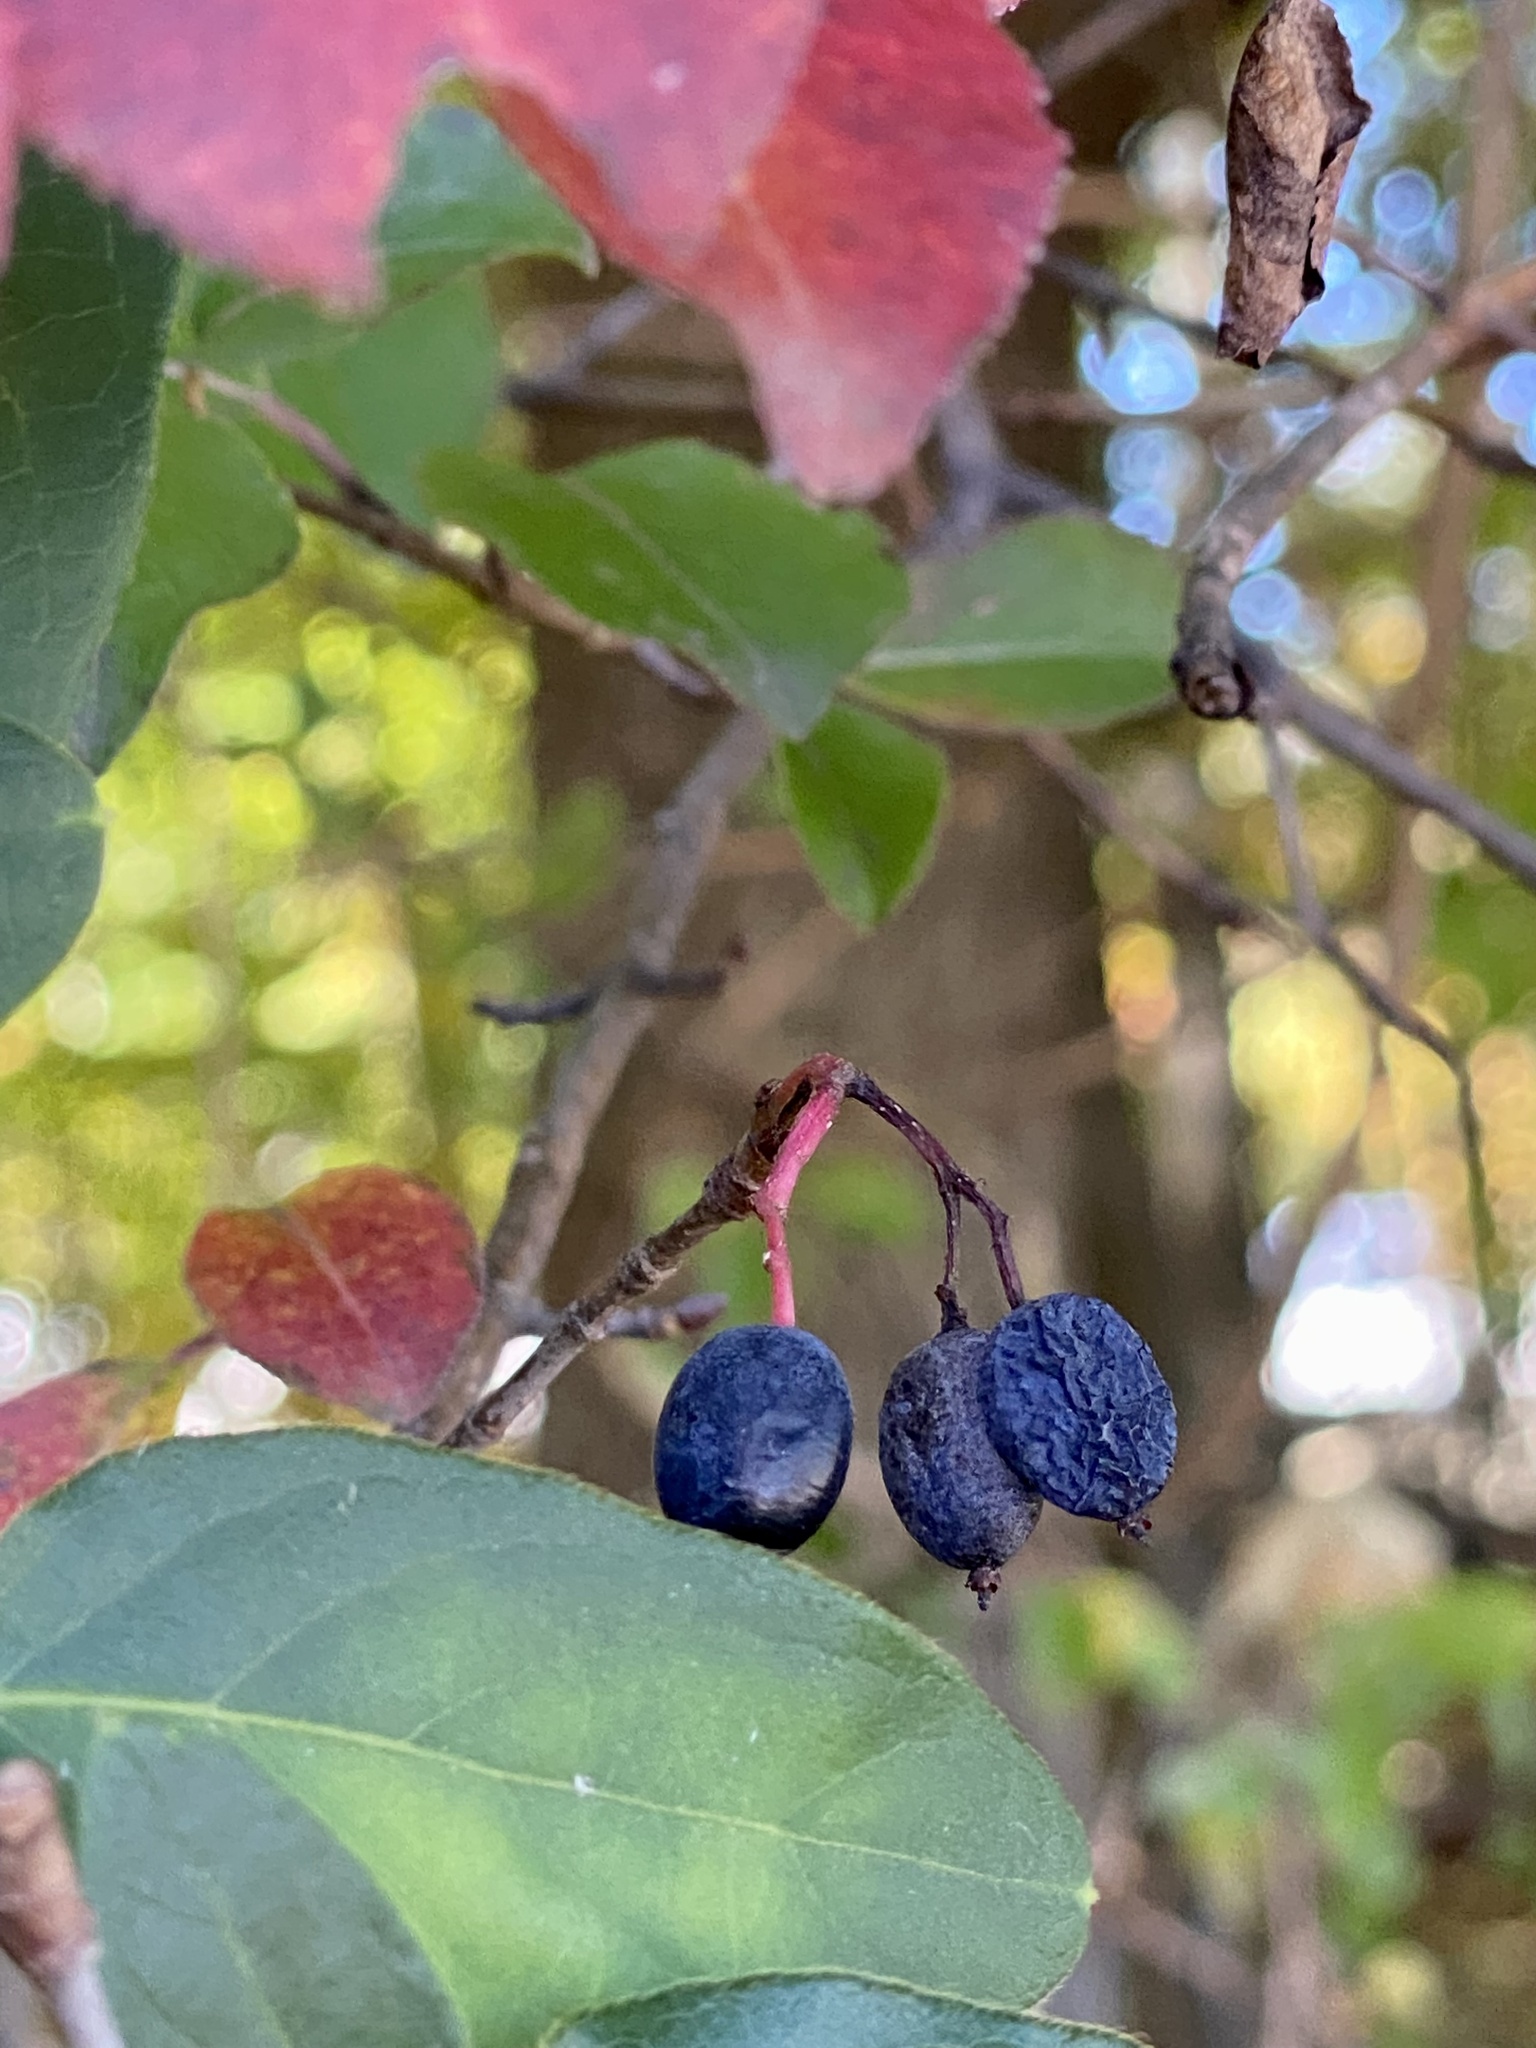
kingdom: Plantae
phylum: Tracheophyta
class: Magnoliopsida
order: Dipsacales
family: Viburnaceae
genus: Viburnum
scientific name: Viburnum prunifolium
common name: Black haw
